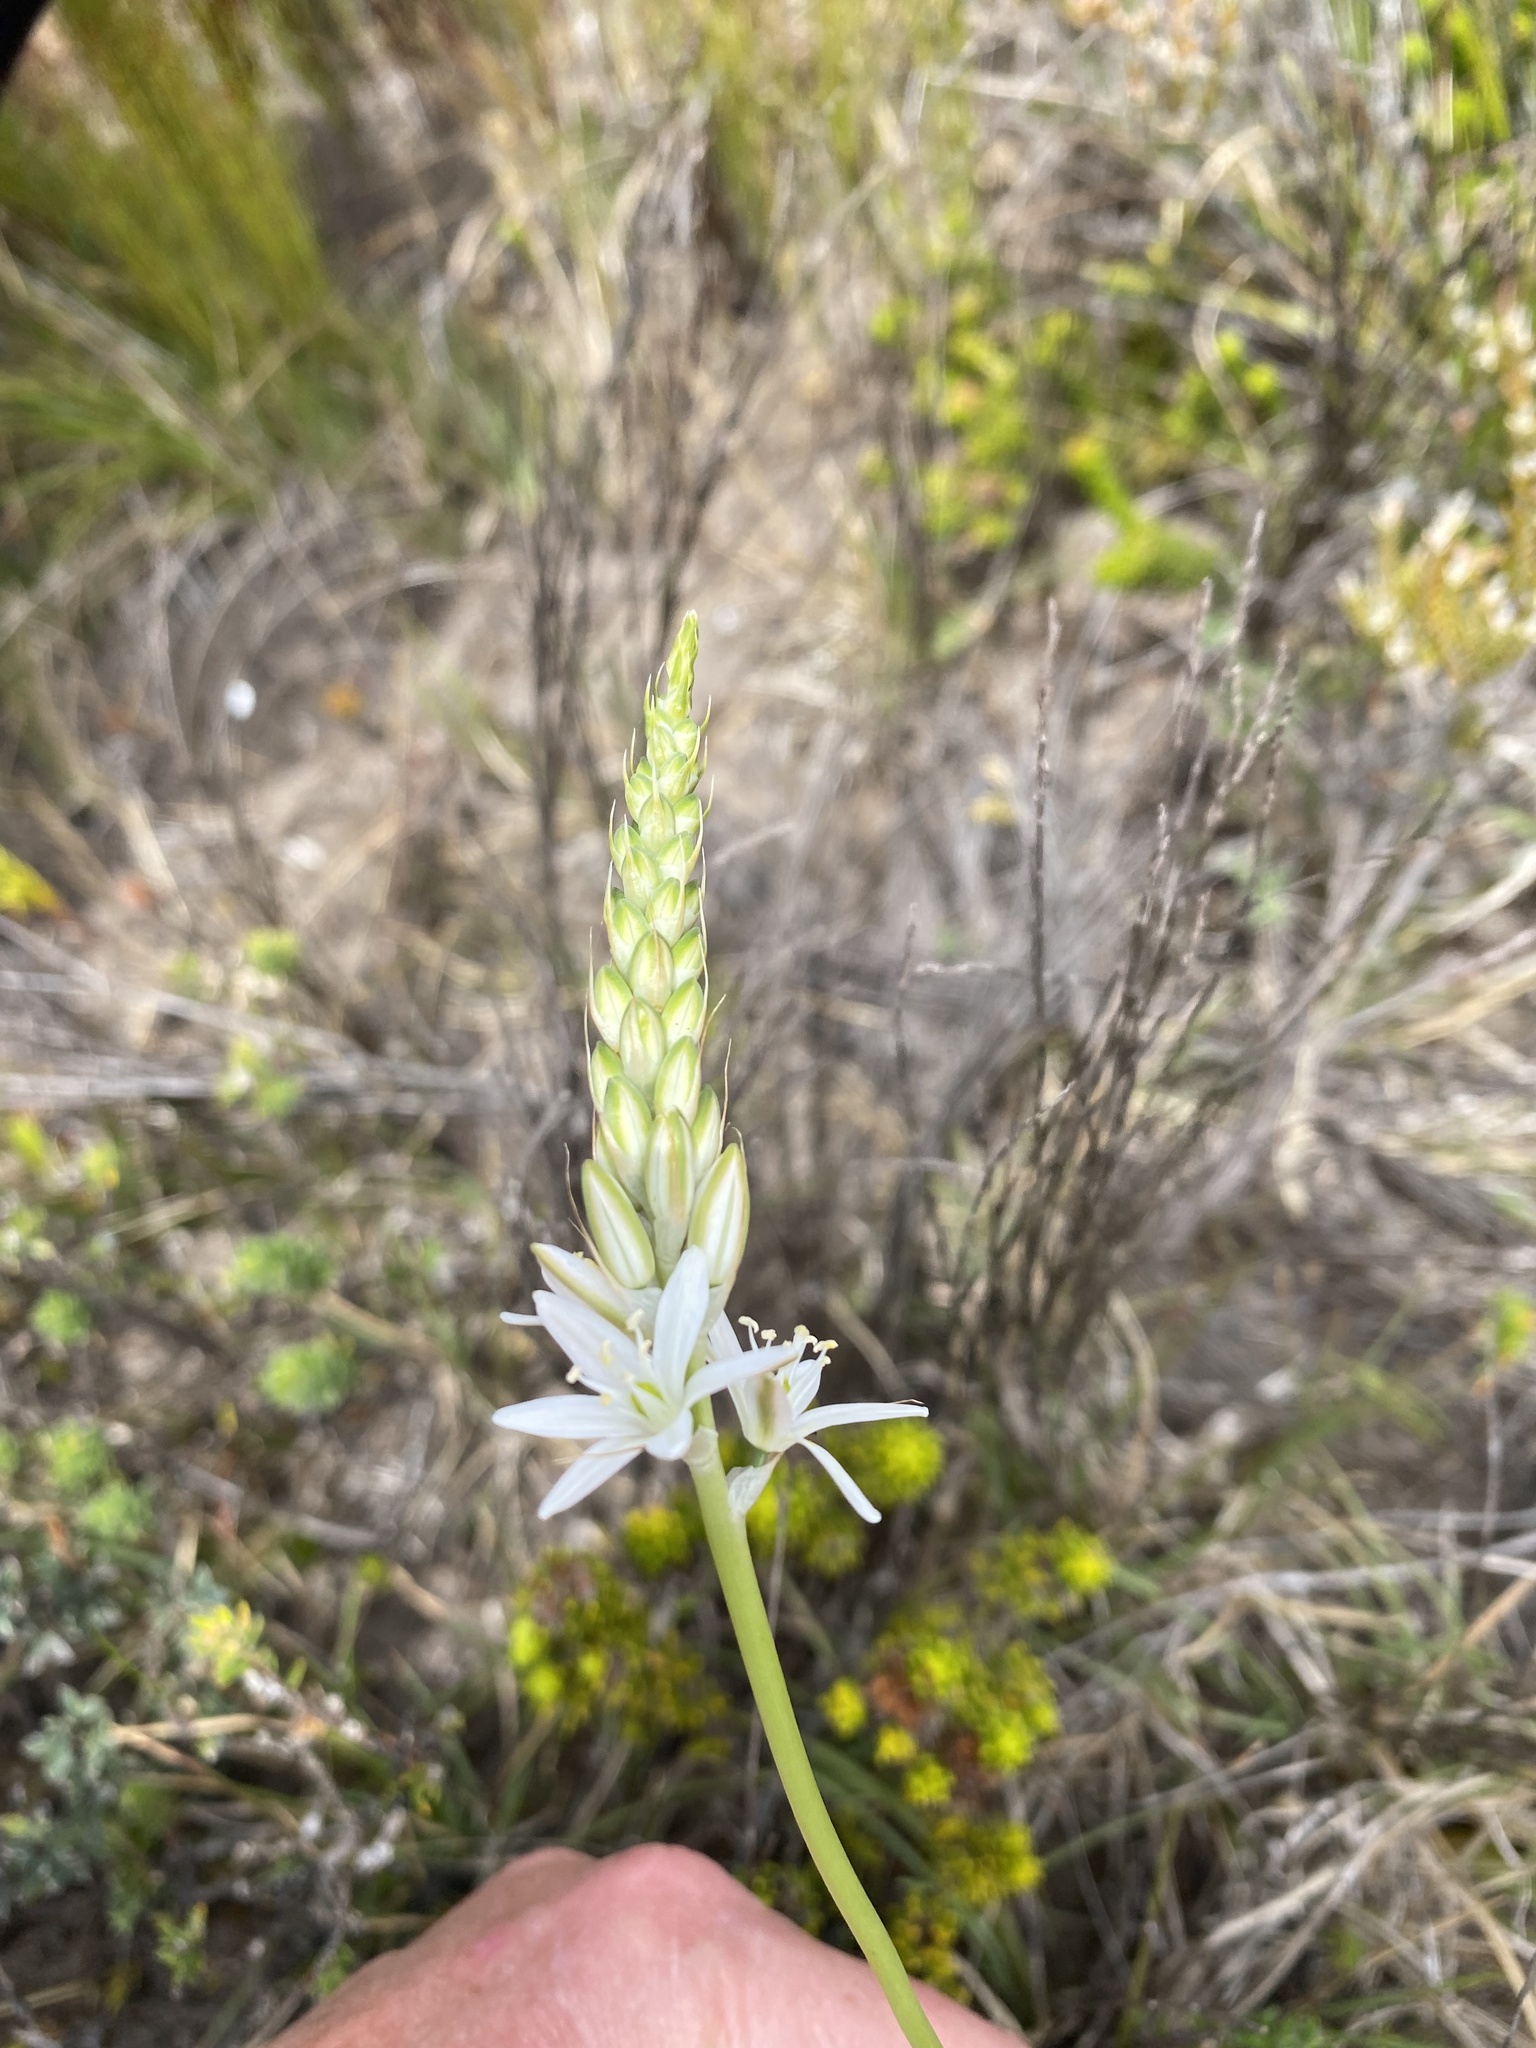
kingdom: Plantae
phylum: Tracheophyta
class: Liliopsida
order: Asparagales
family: Asparagaceae
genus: Ornithogalum
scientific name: Ornithogalum juncifolium
